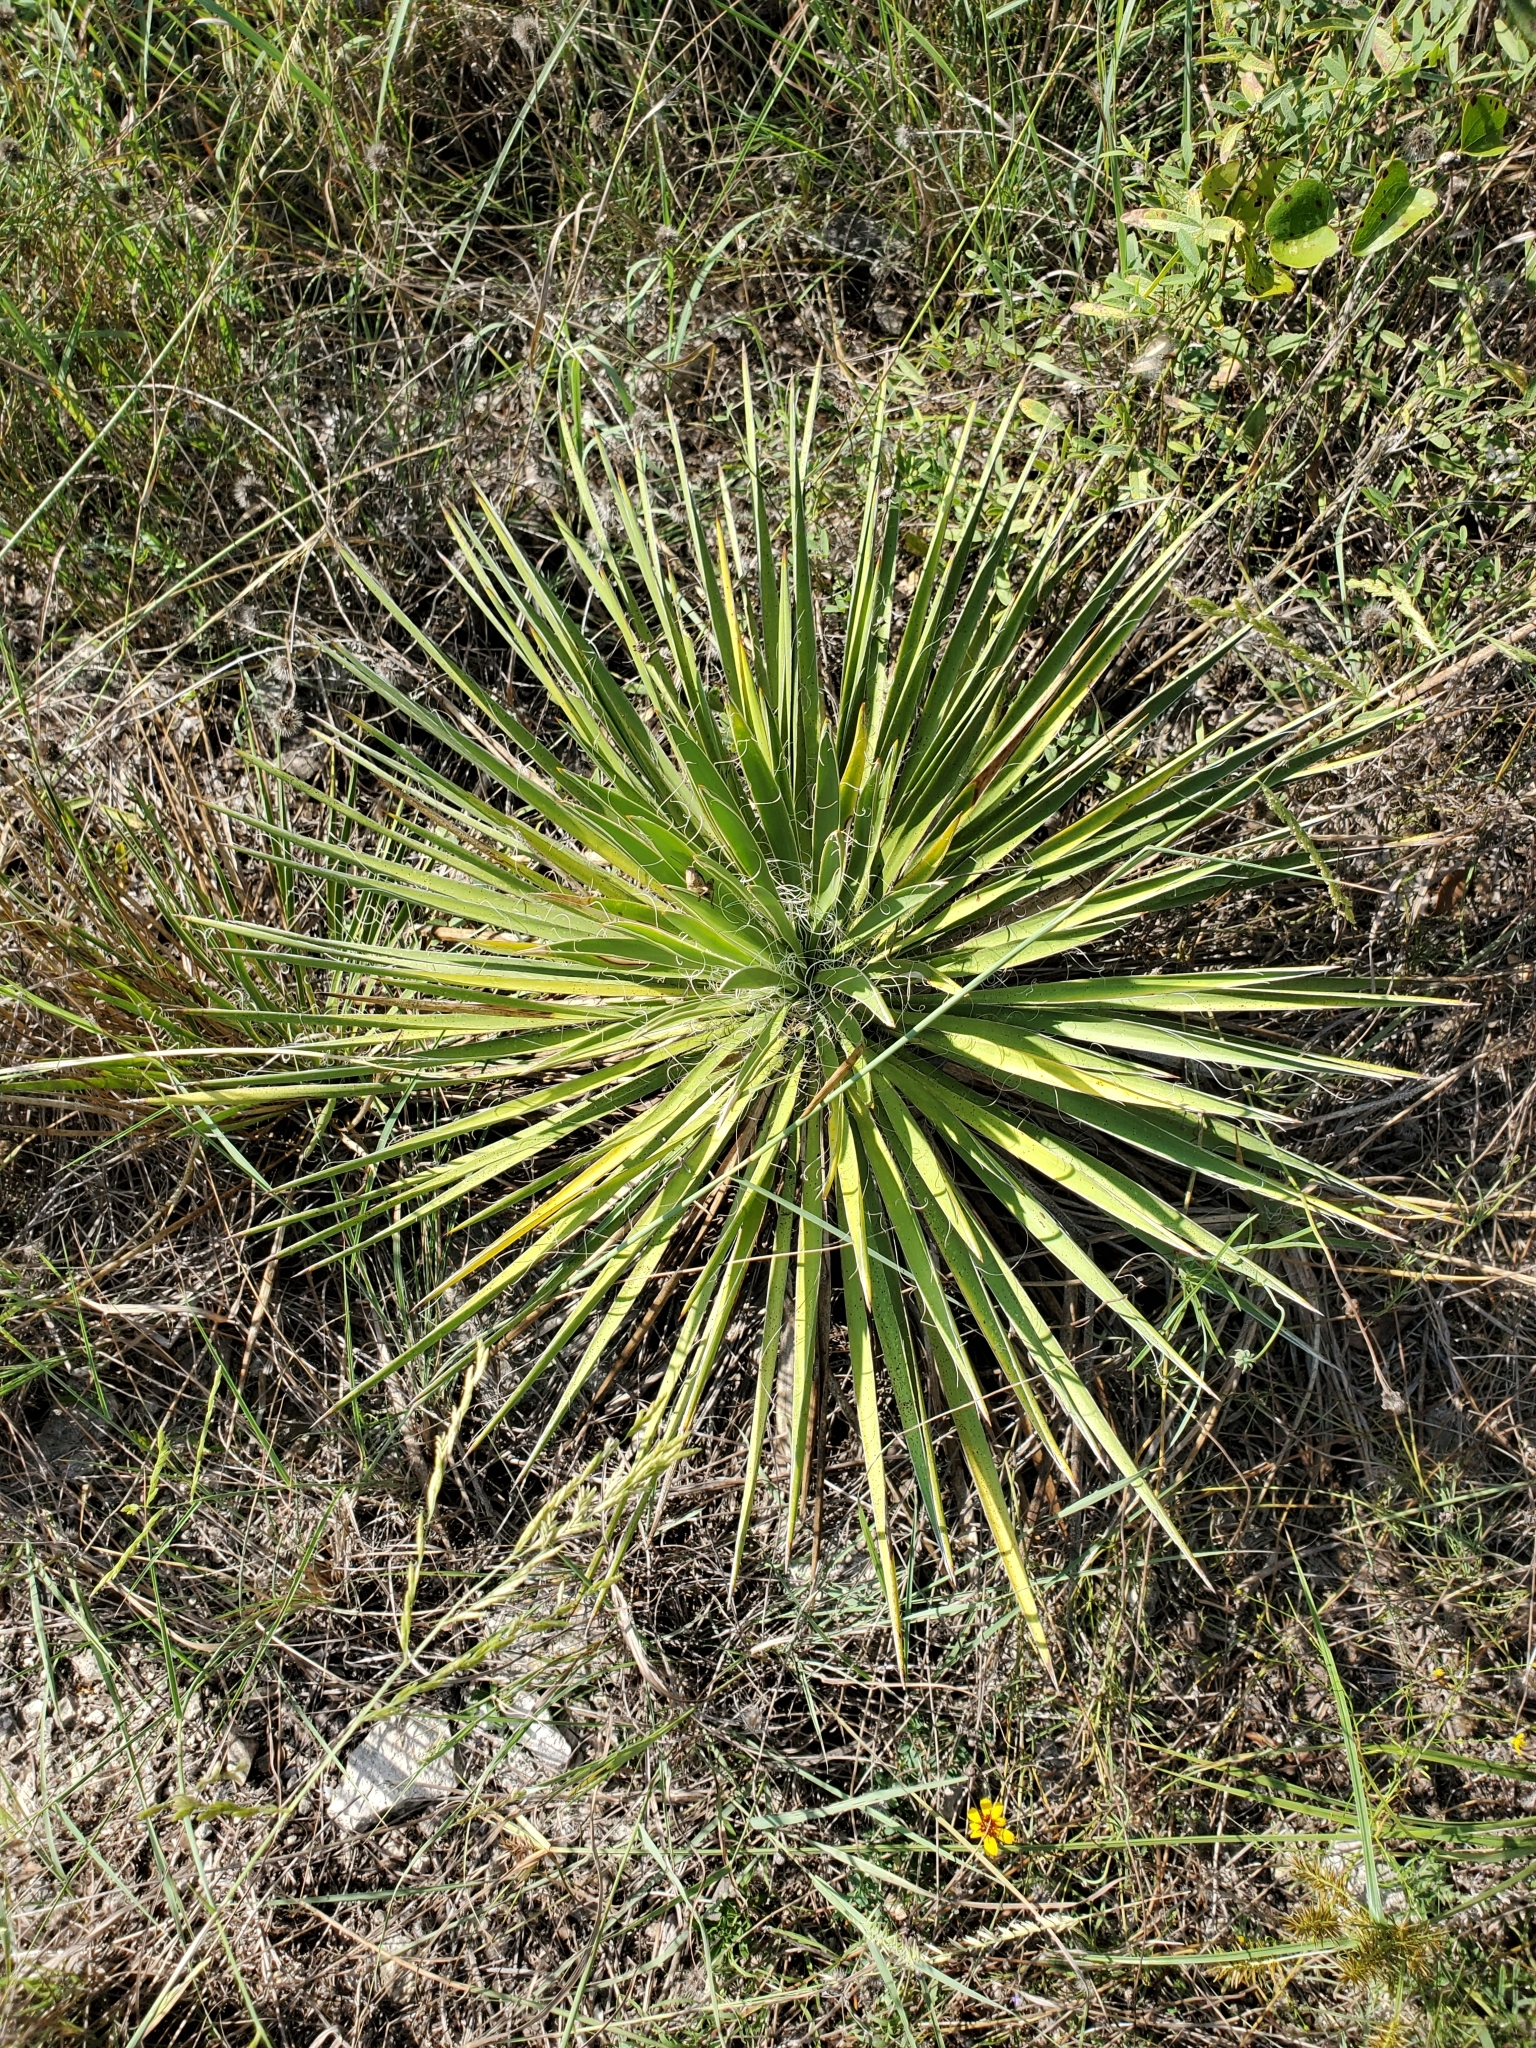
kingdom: Plantae
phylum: Tracheophyta
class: Liliopsida
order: Asparagales
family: Asparagaceae
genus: Yucca
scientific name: Yucca constricta
